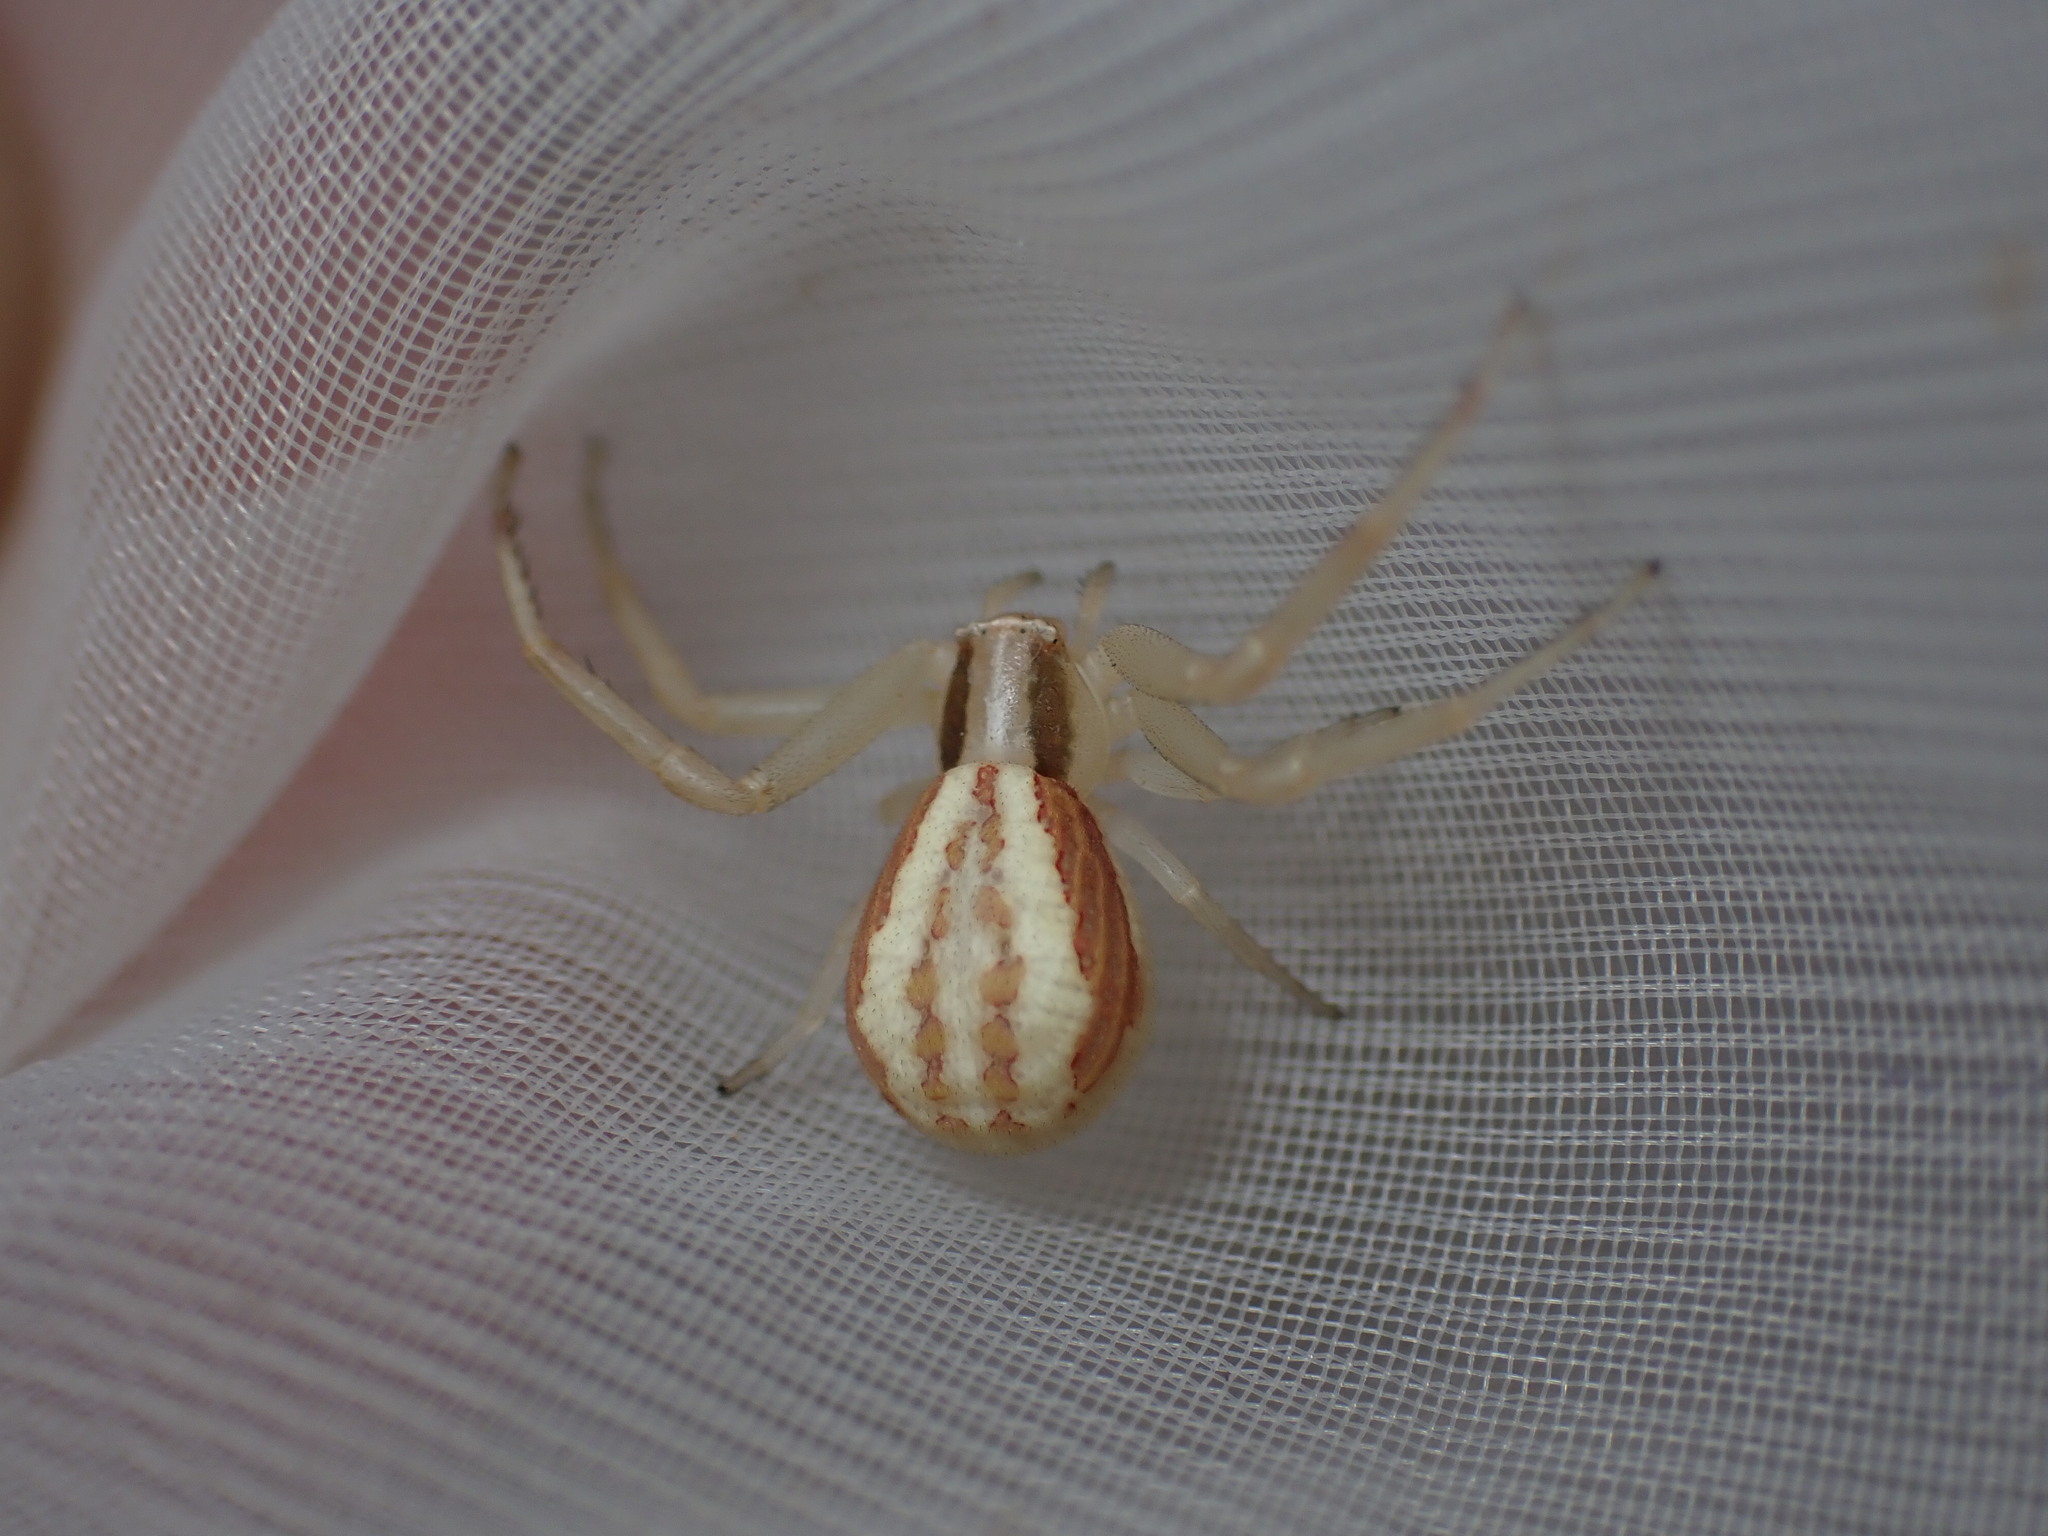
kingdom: Animalia
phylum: Arthropoda
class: Arachnida
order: Araneae
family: Thomisidae
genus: Runcinia
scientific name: Runcinia grammica
